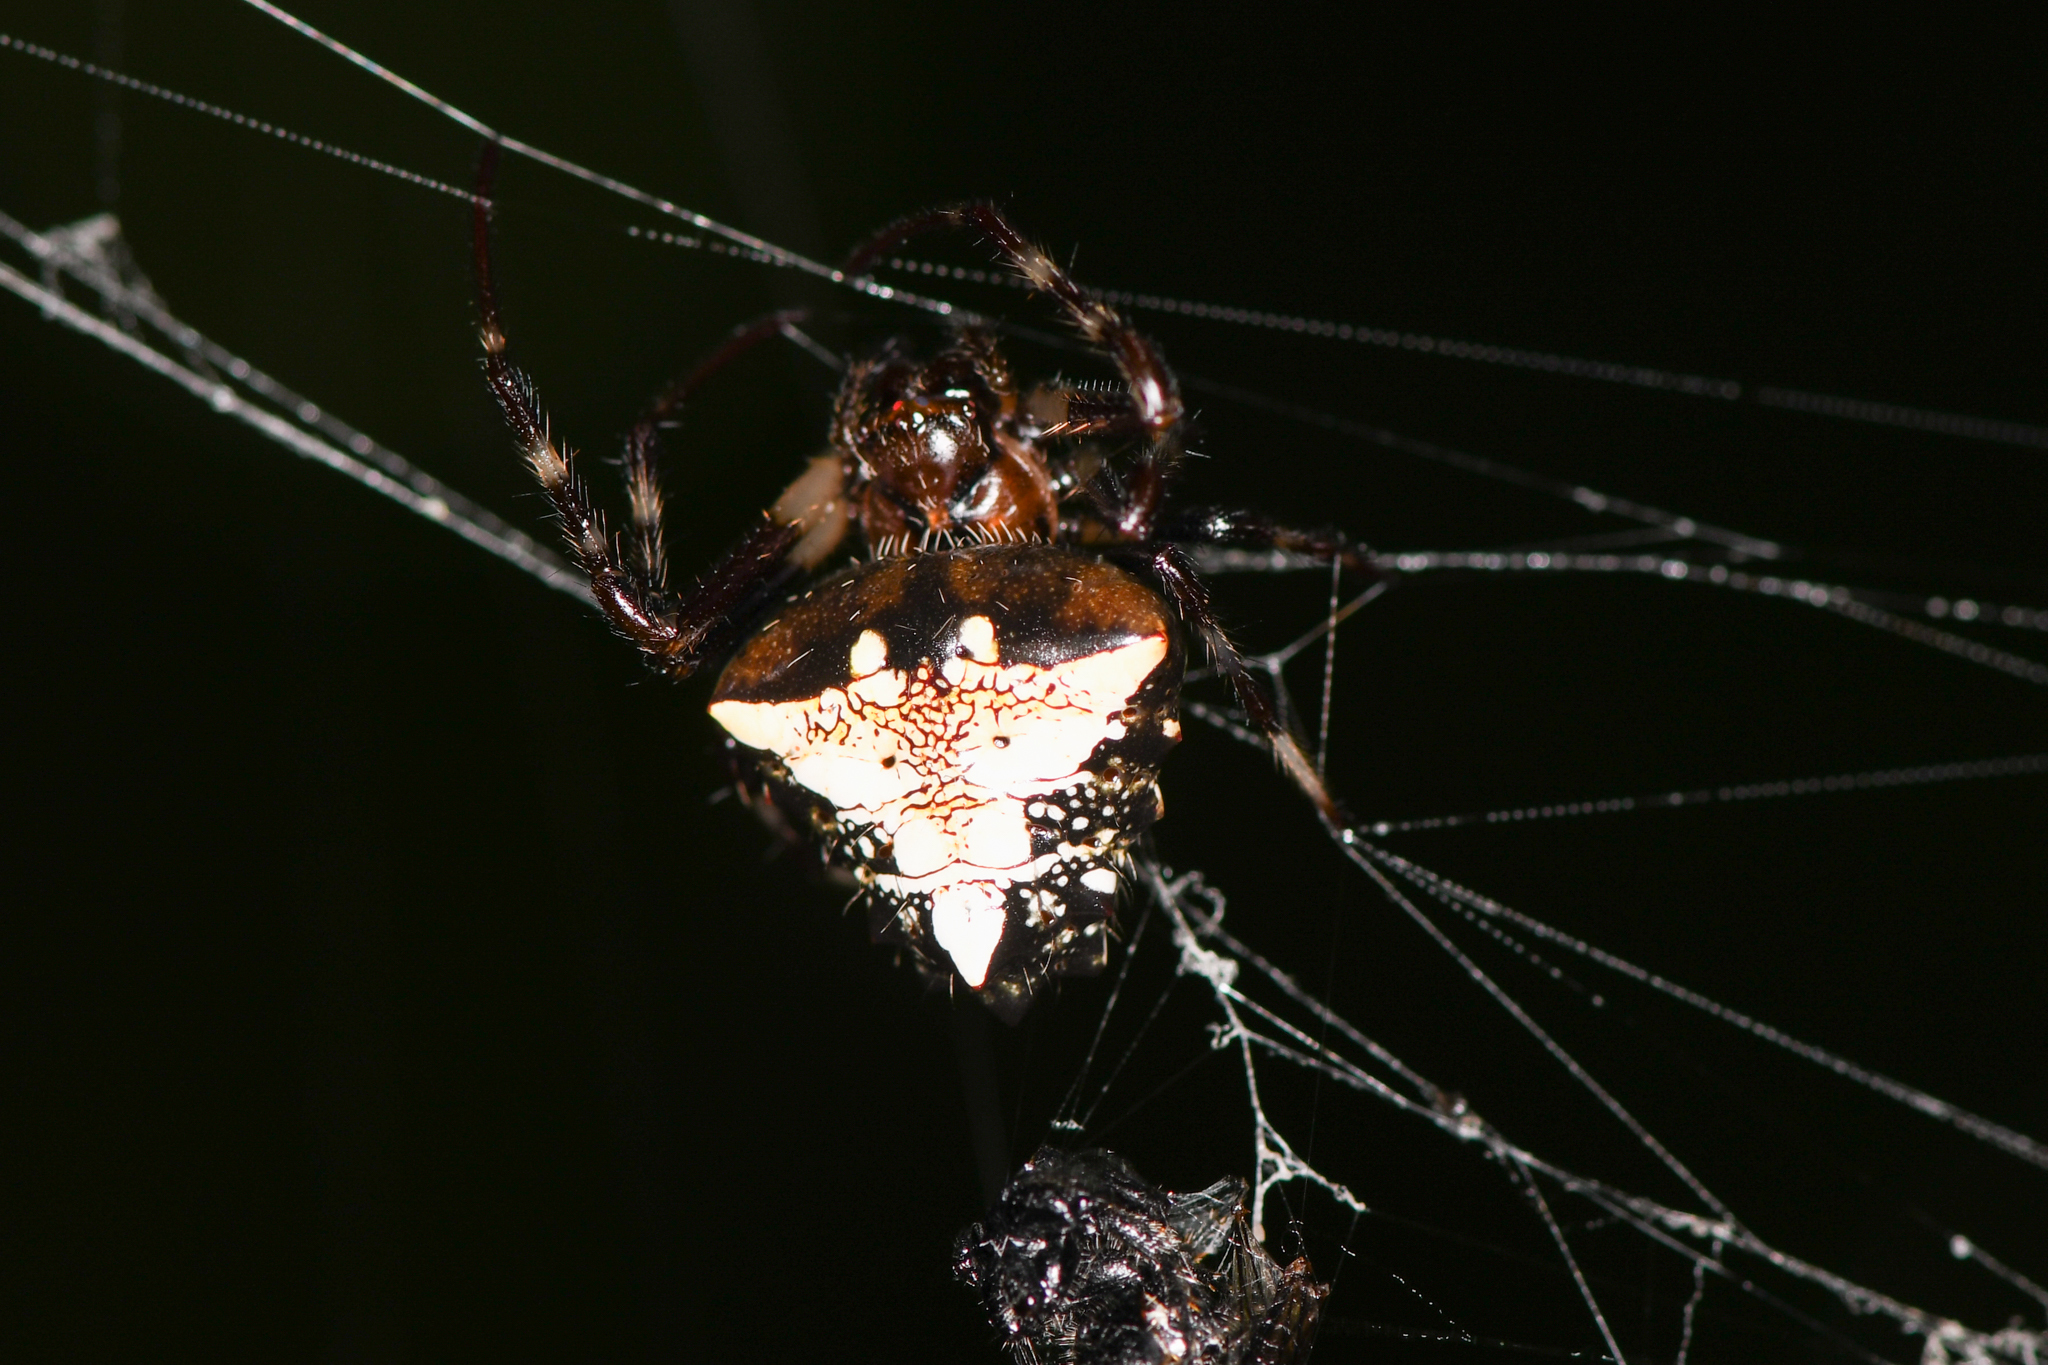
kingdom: Animalia
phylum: Arthropoda
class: Arachnida
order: Araneae
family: Araneidae
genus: Verrucosa
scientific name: Verrucosa arenata
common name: Orb weavers
